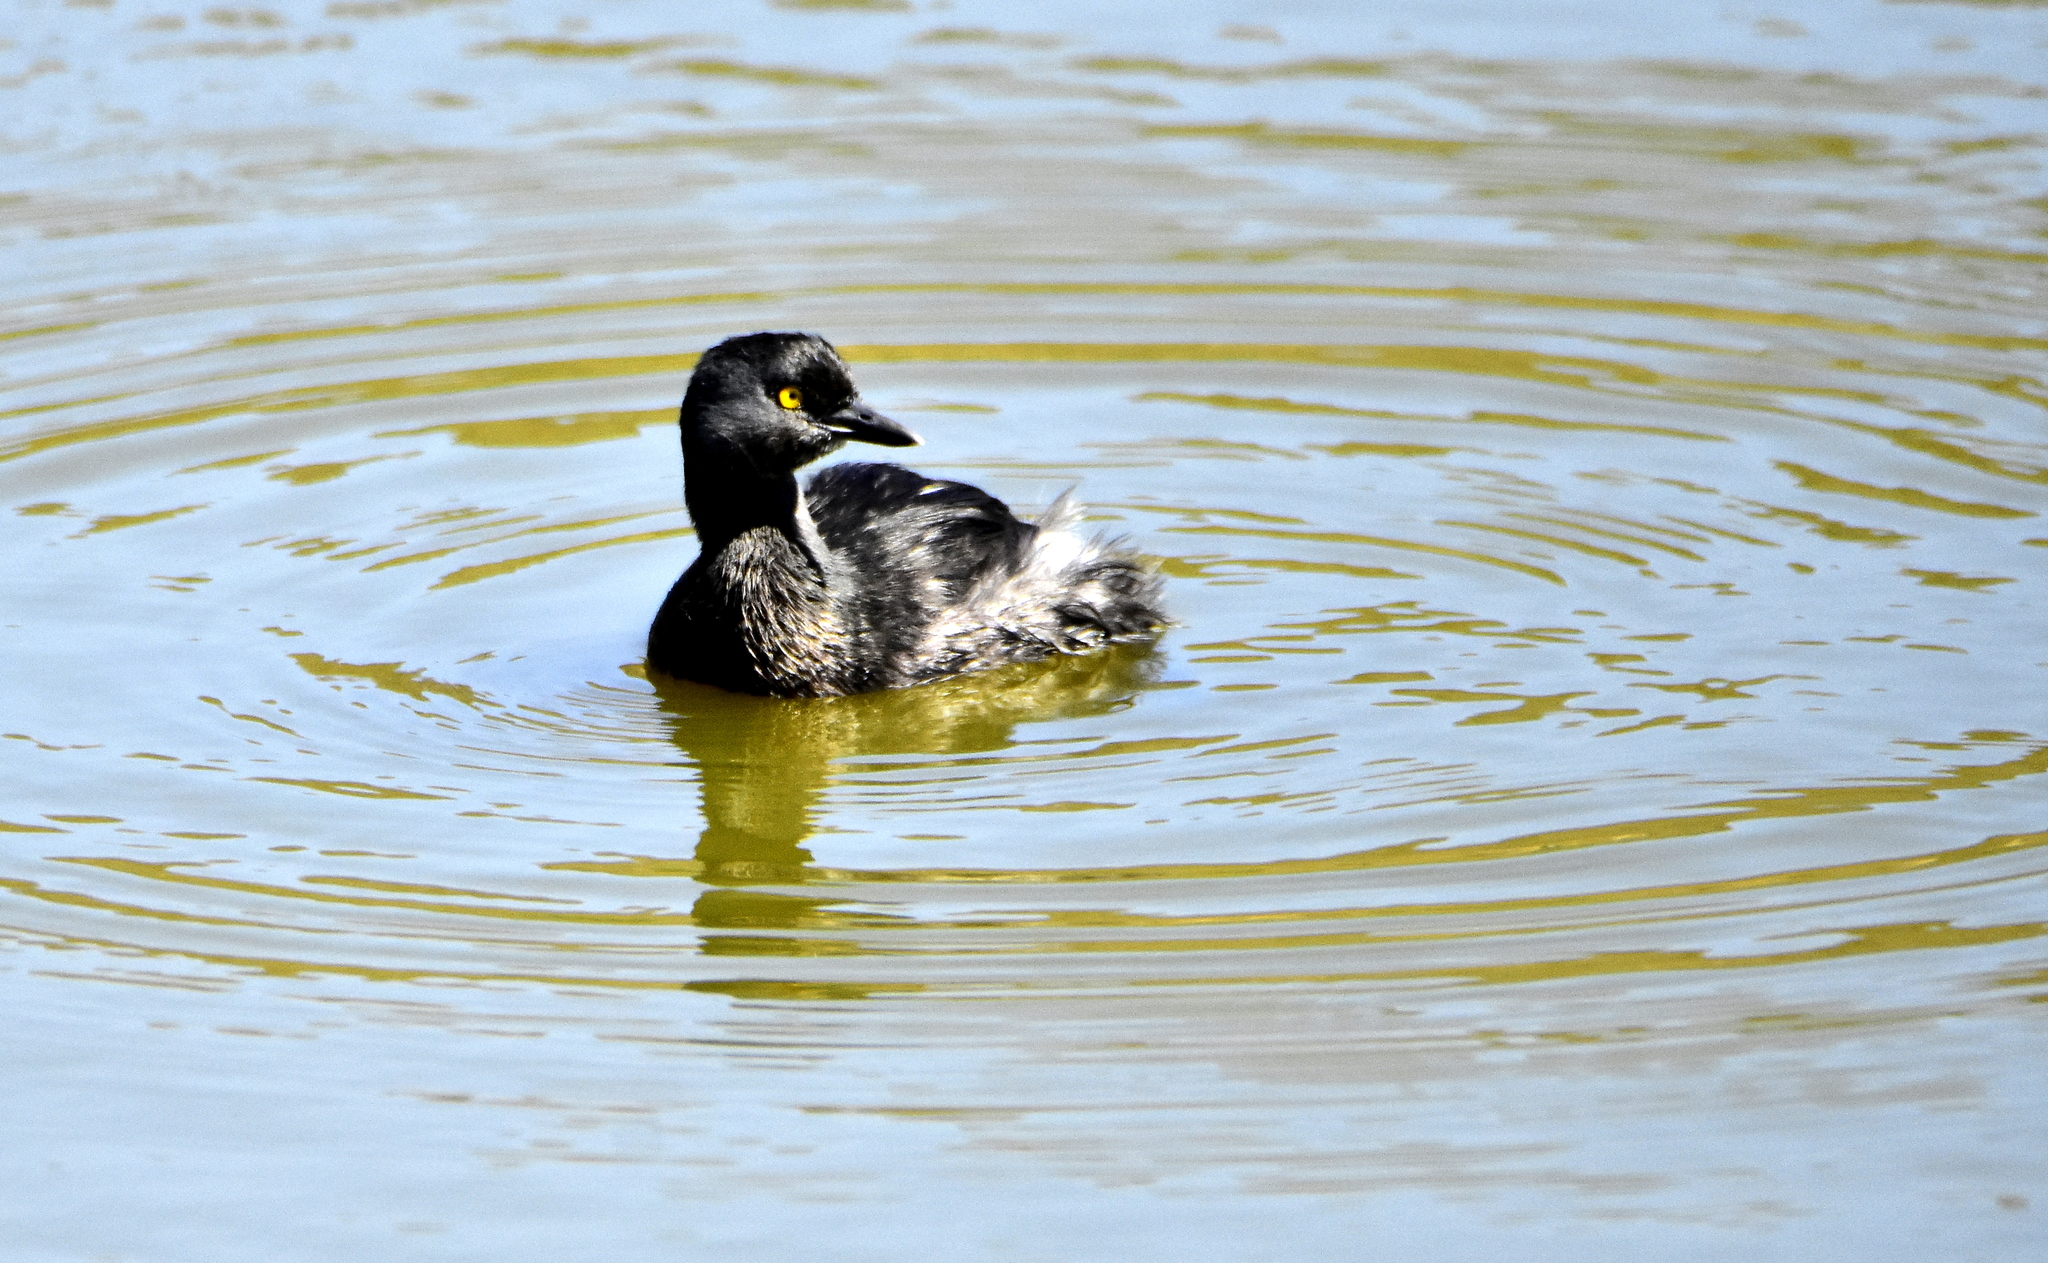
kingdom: Animalia
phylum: Chordata
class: Aves
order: Podicipediformes
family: Podicipedidae
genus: Tachybaptus
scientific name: Tachybaptus dominicus
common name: Least grebe
